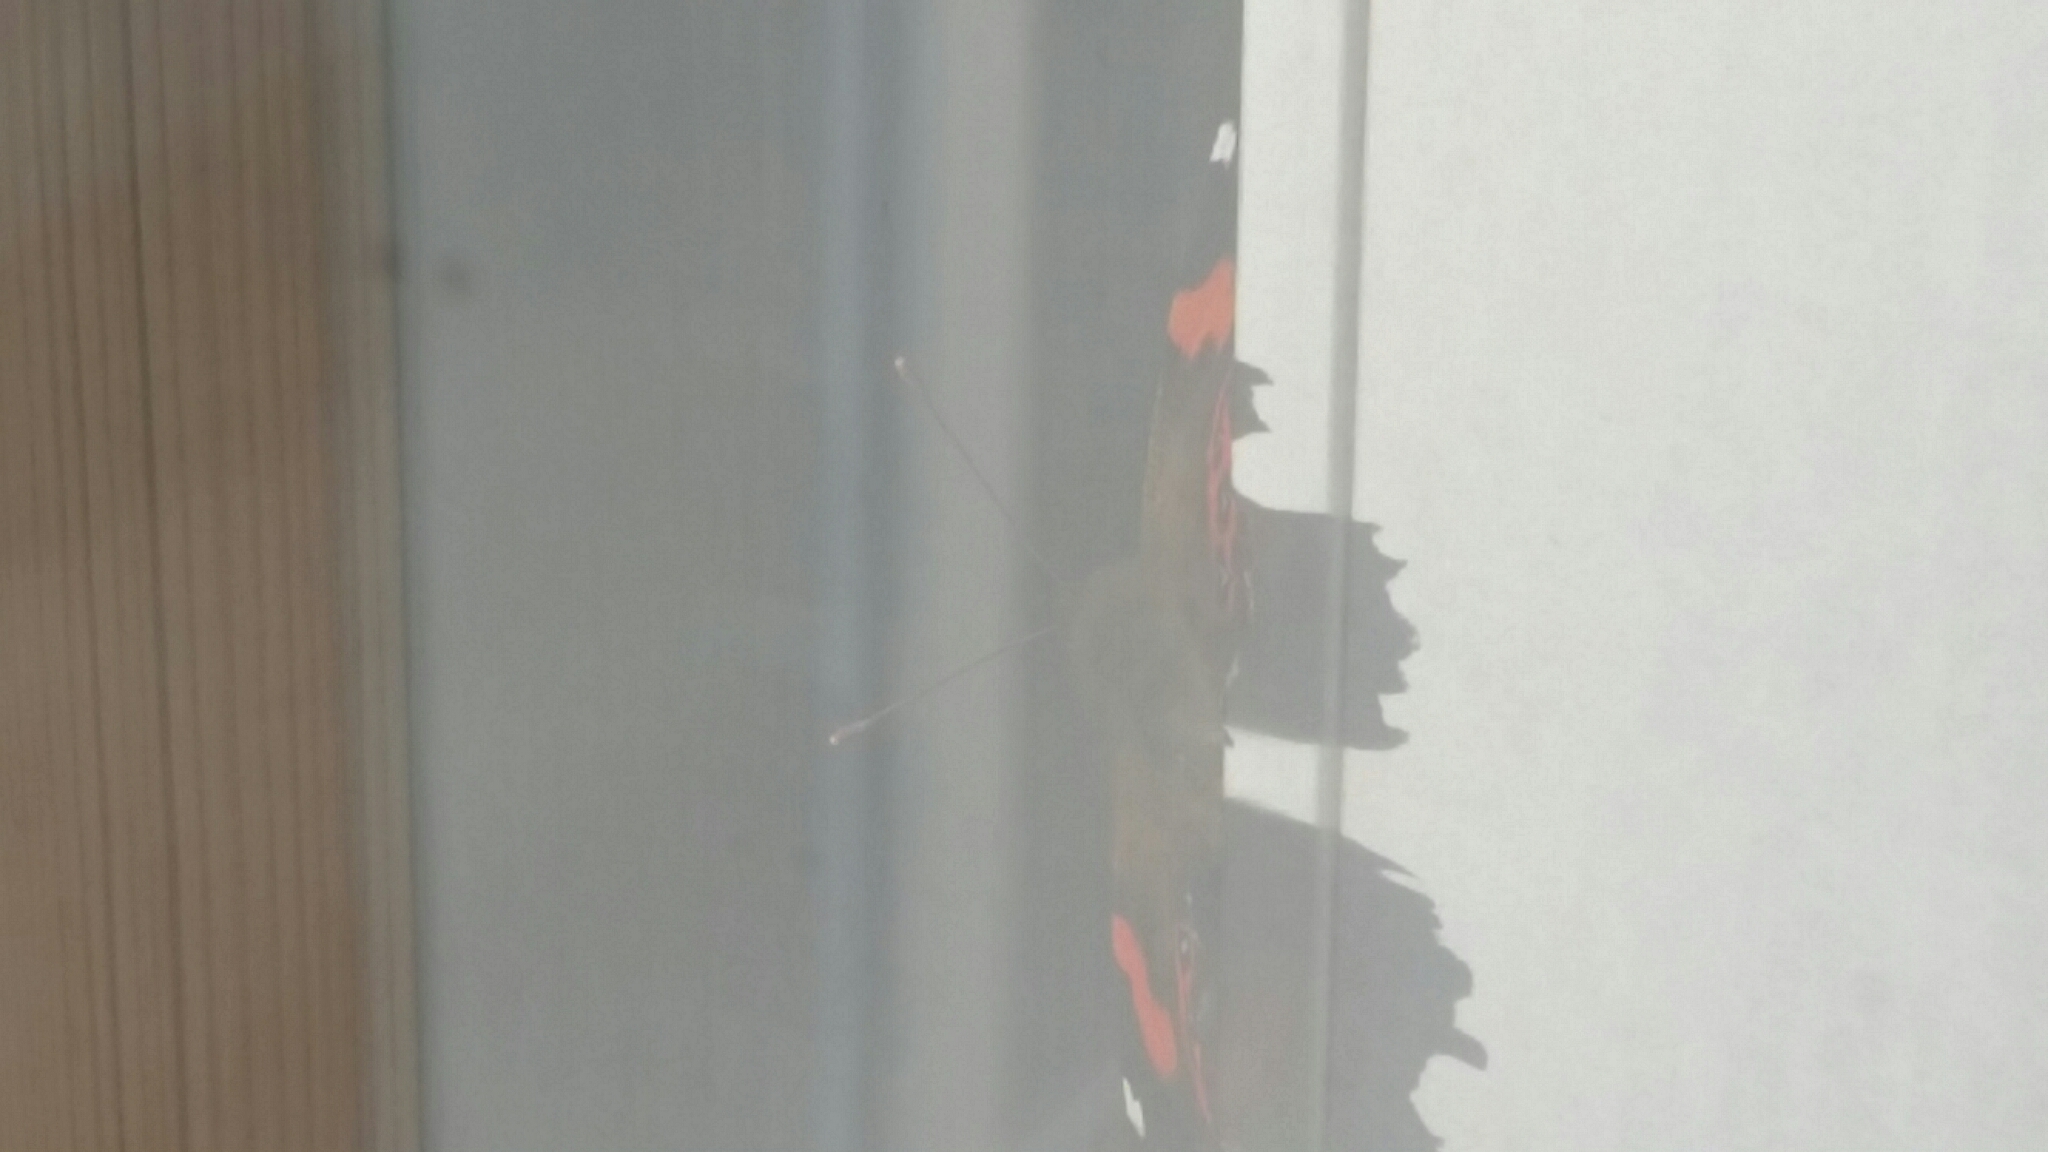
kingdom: Animalia
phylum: Arthropoda
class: Insecta
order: Lepidoptera
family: Nymphalidae
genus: Vanessa
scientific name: Vanessa gonerilla
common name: New zealand red admiral
